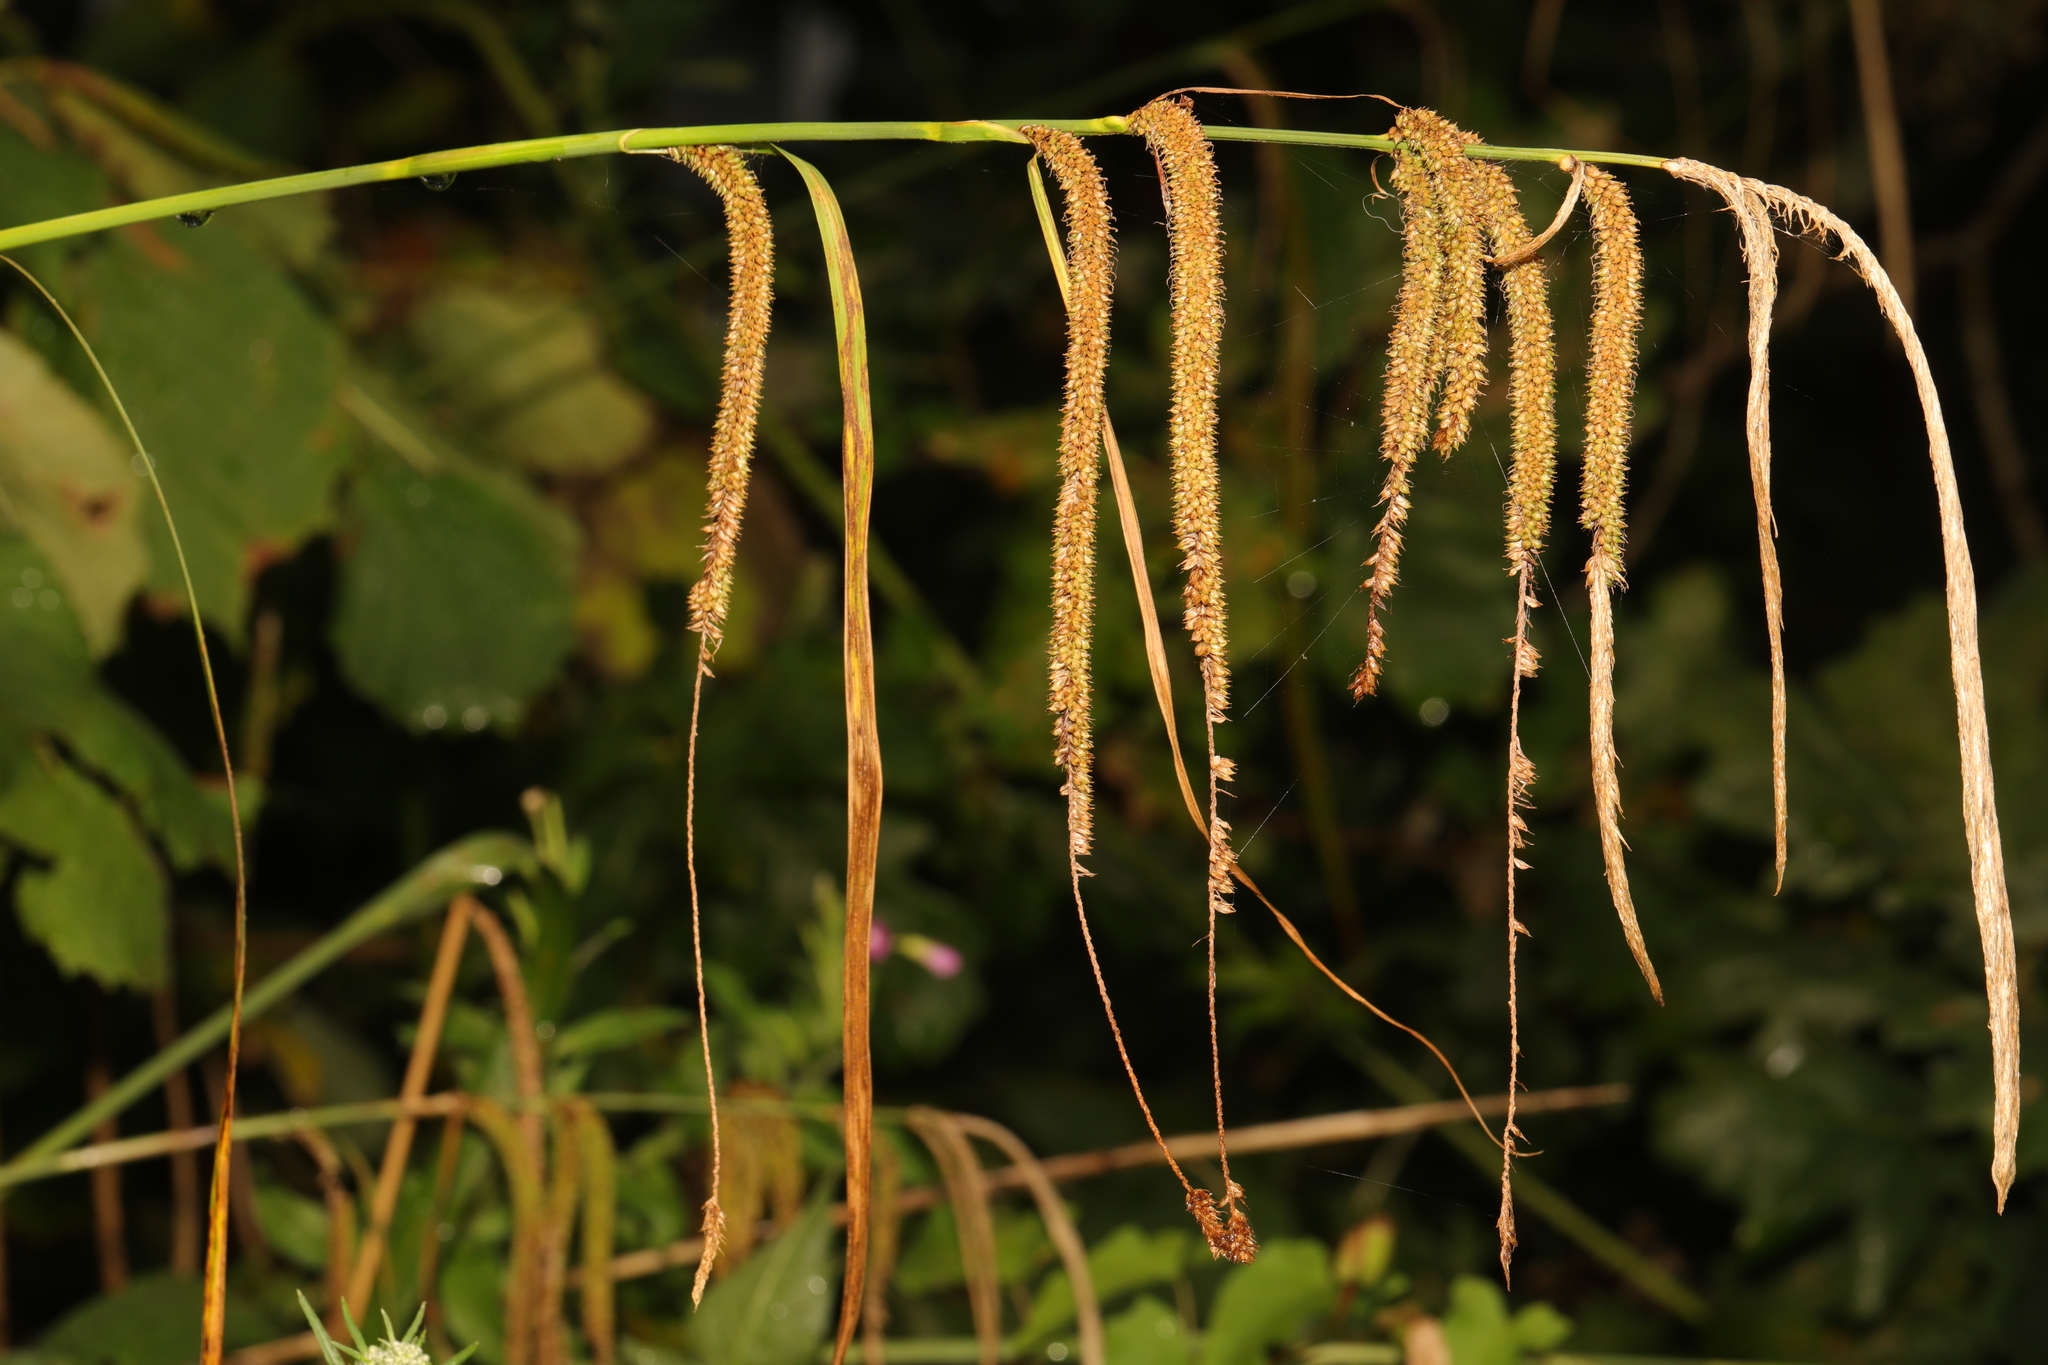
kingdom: Plantae
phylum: Tracheophyta
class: Liliopsida
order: Poales
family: Cyperaceae
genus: Carex
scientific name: Carex pendula
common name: Pendulous sedge
